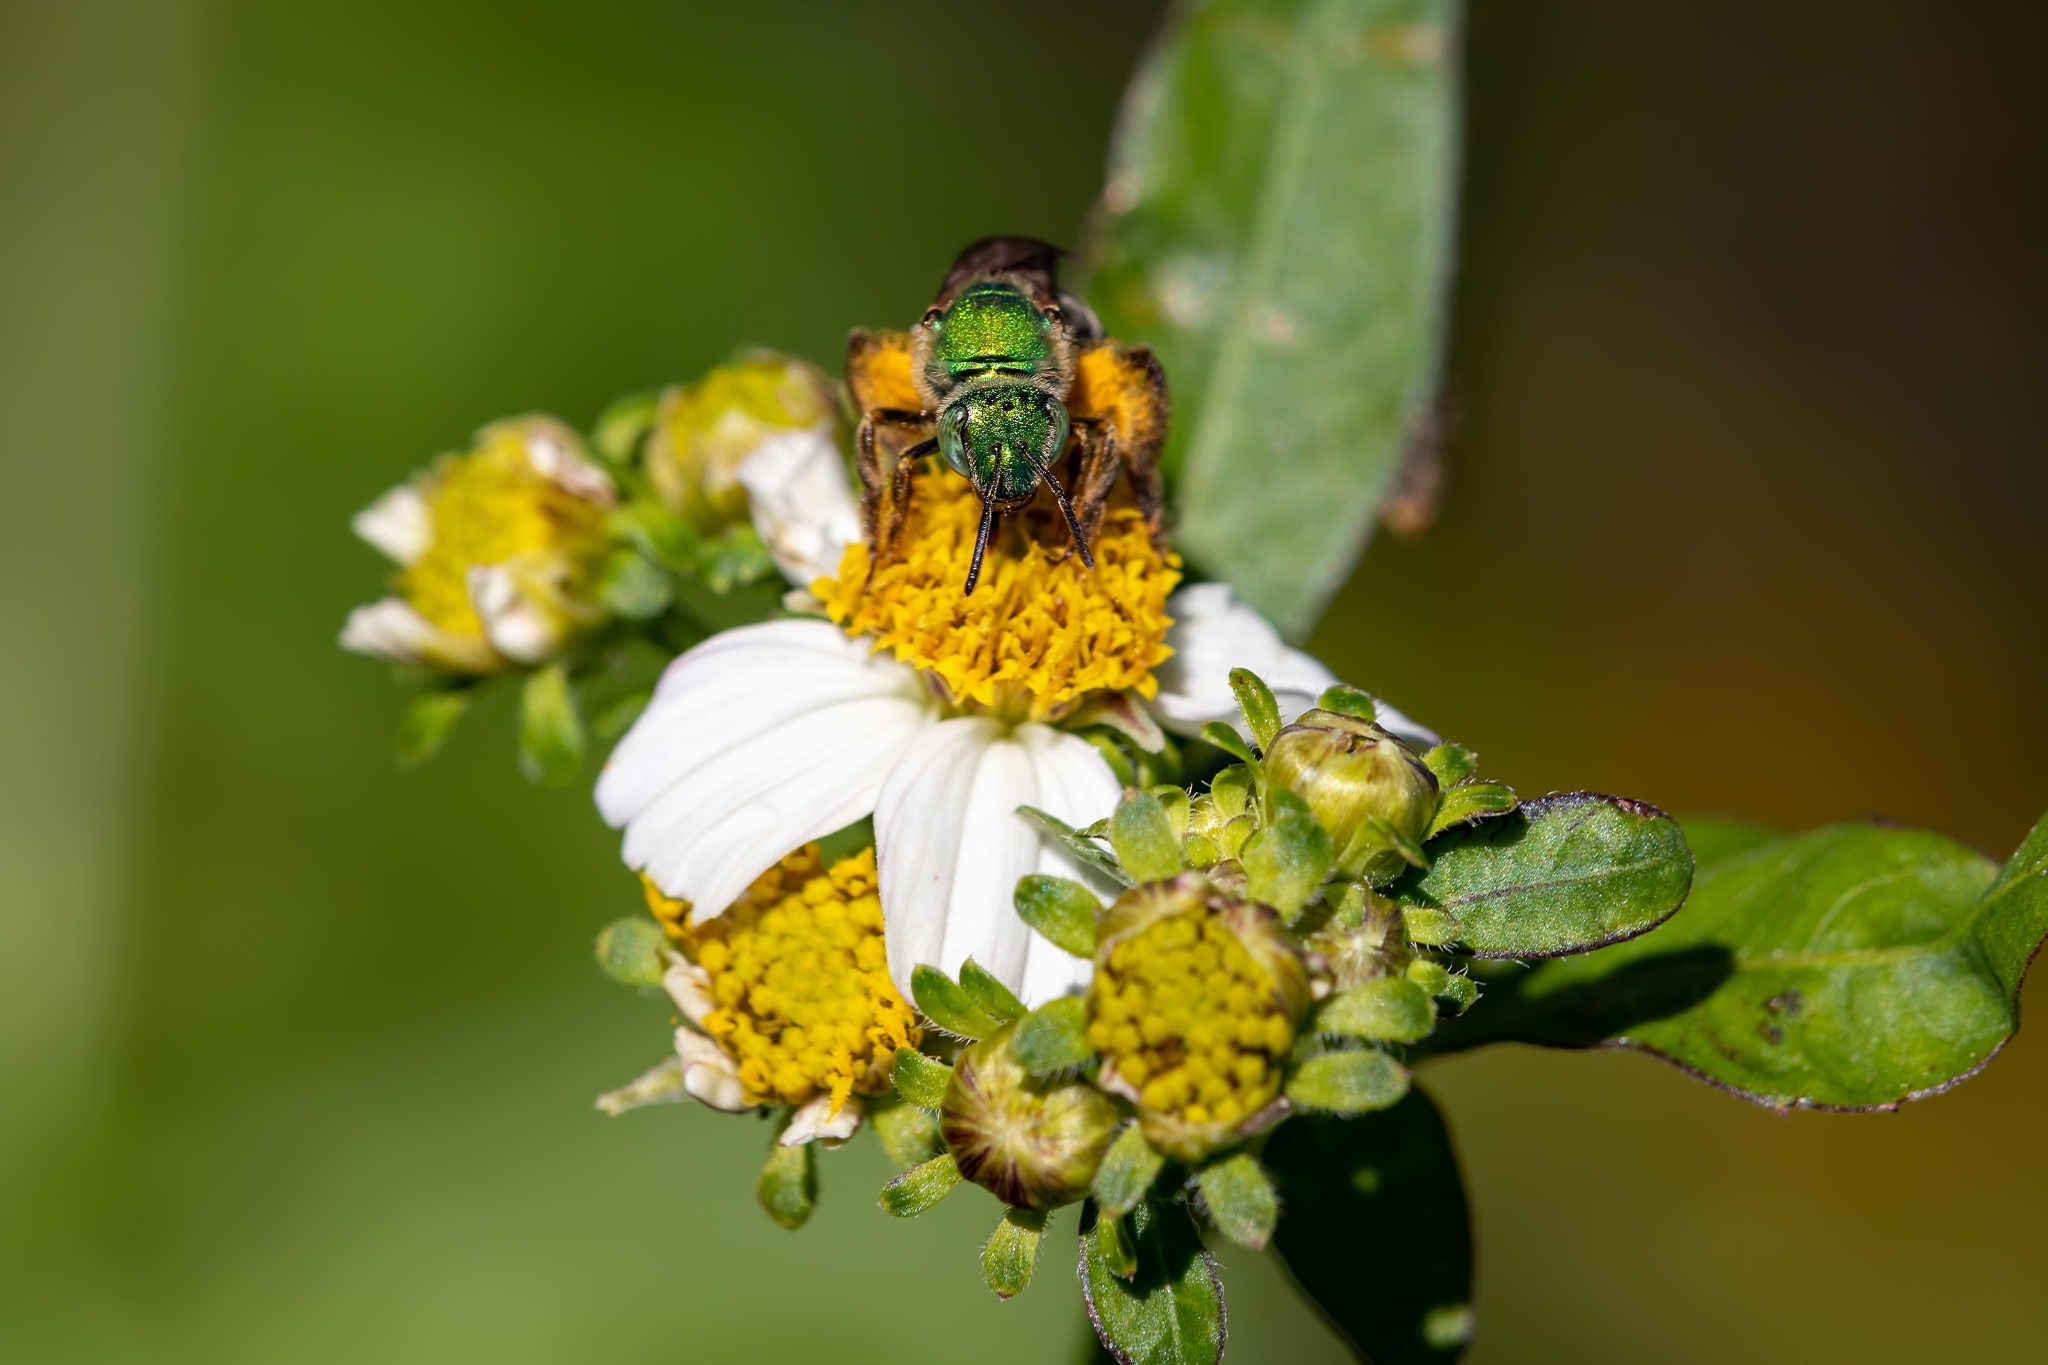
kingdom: Animalia
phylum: Arthropoda
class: Insecta
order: Hymenoptera
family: Halictidae
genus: Agapostemon
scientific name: Agapostemon splendens
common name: Brown-winged striped sweat bee
